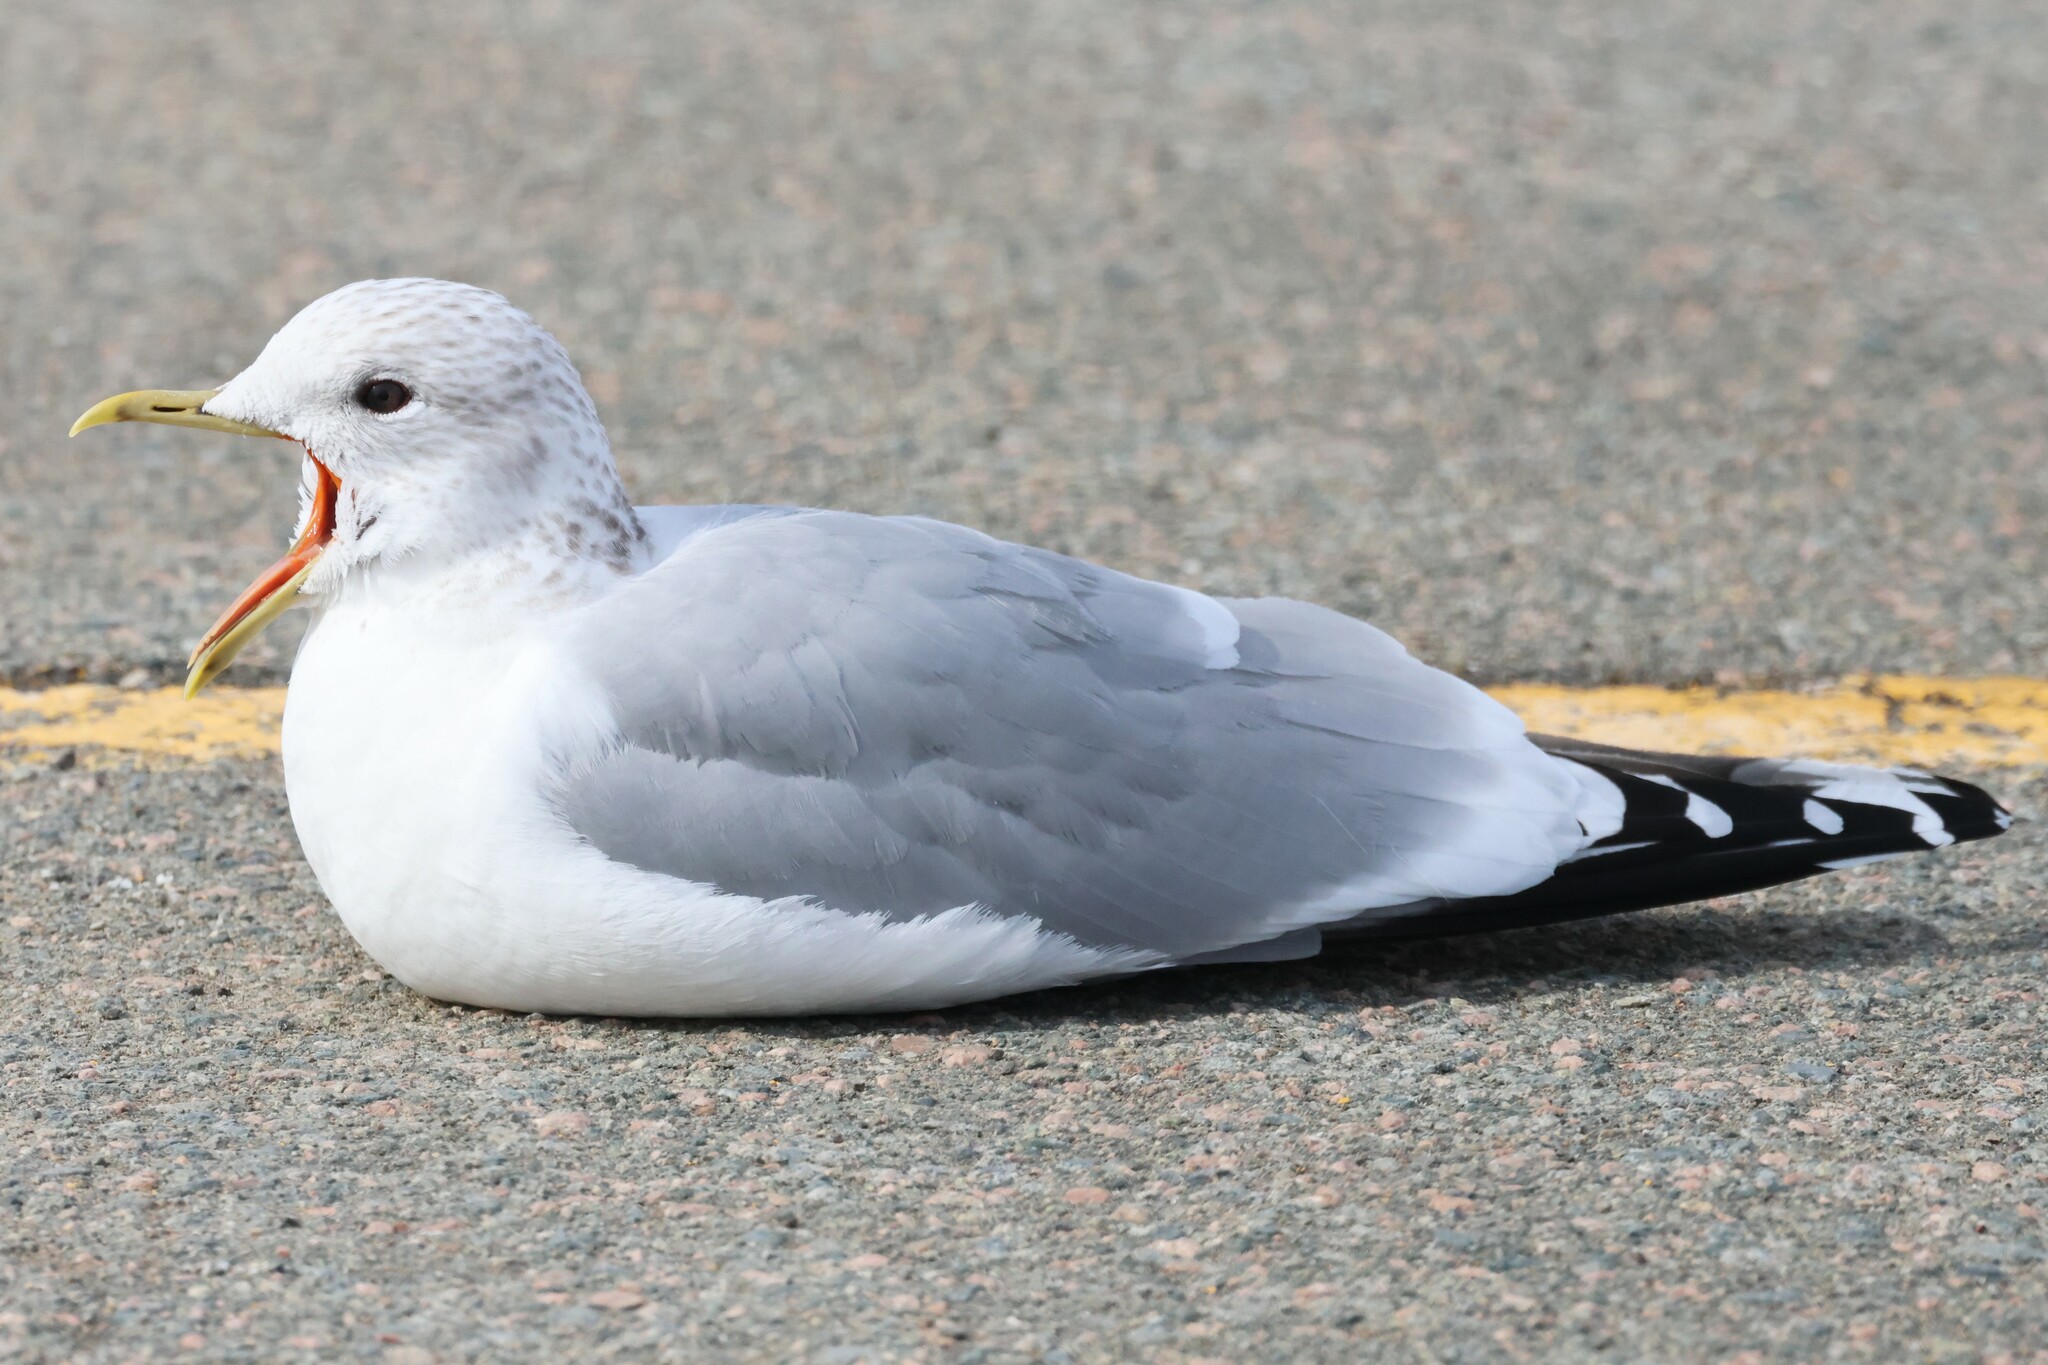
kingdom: Animalia
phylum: Chordata
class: Aves
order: Charadriiformes
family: Laridae
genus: Larus
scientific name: Larus canus
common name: Mew gull
